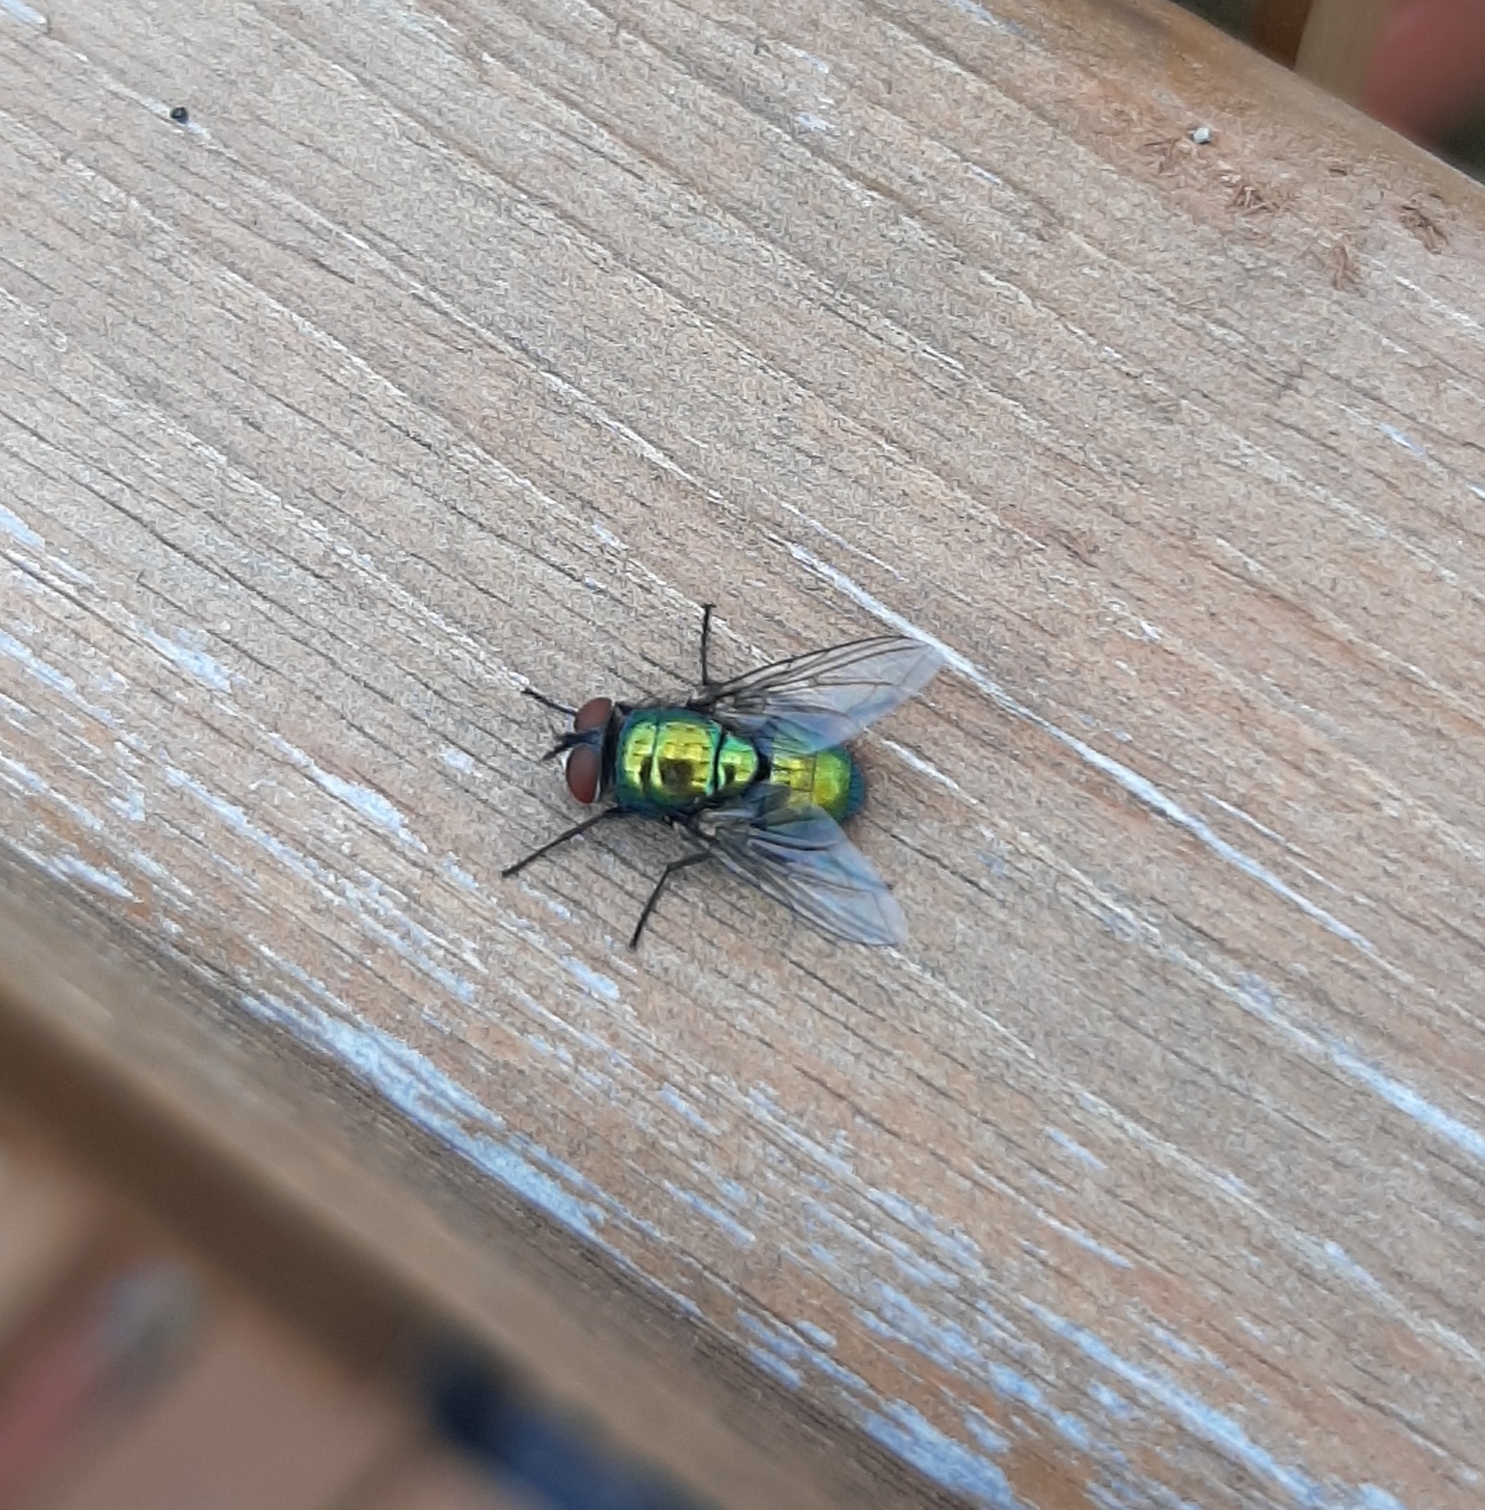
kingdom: Animalia
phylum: Arthropoda
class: Insecta
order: Diptera
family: Calliphoridae
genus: Lucilia
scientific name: Lucilia sericata
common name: Blow fly
